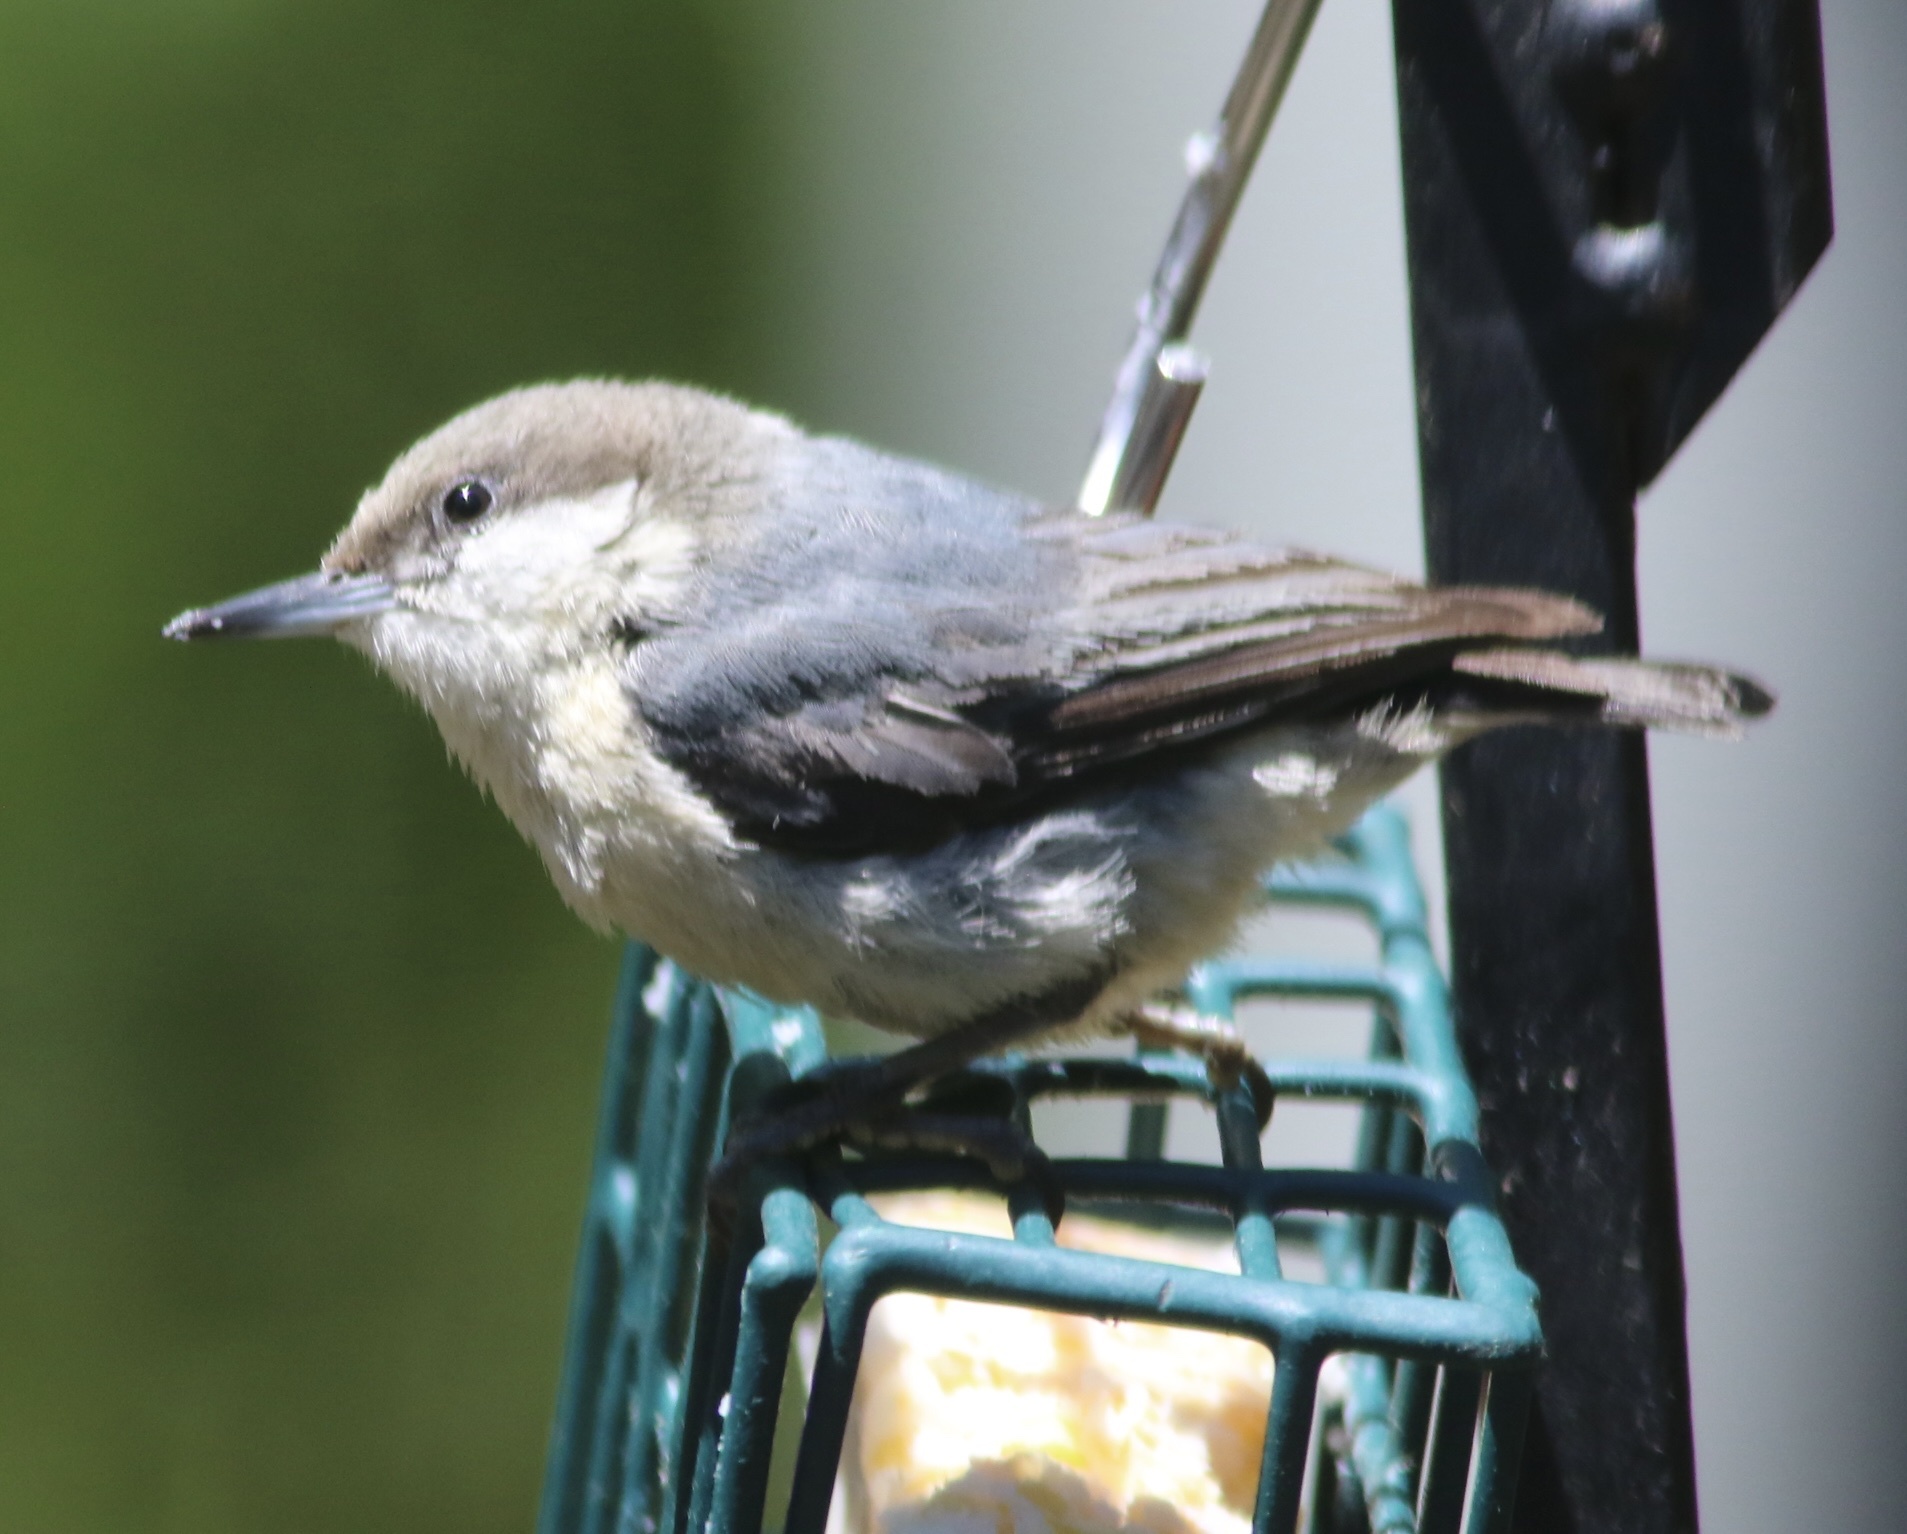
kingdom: Animalia
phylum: Chordata
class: Aves
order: Passeriformes
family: Sittidae
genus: Sitta
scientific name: Sitta pygmaea
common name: Pygmy nuthatch
